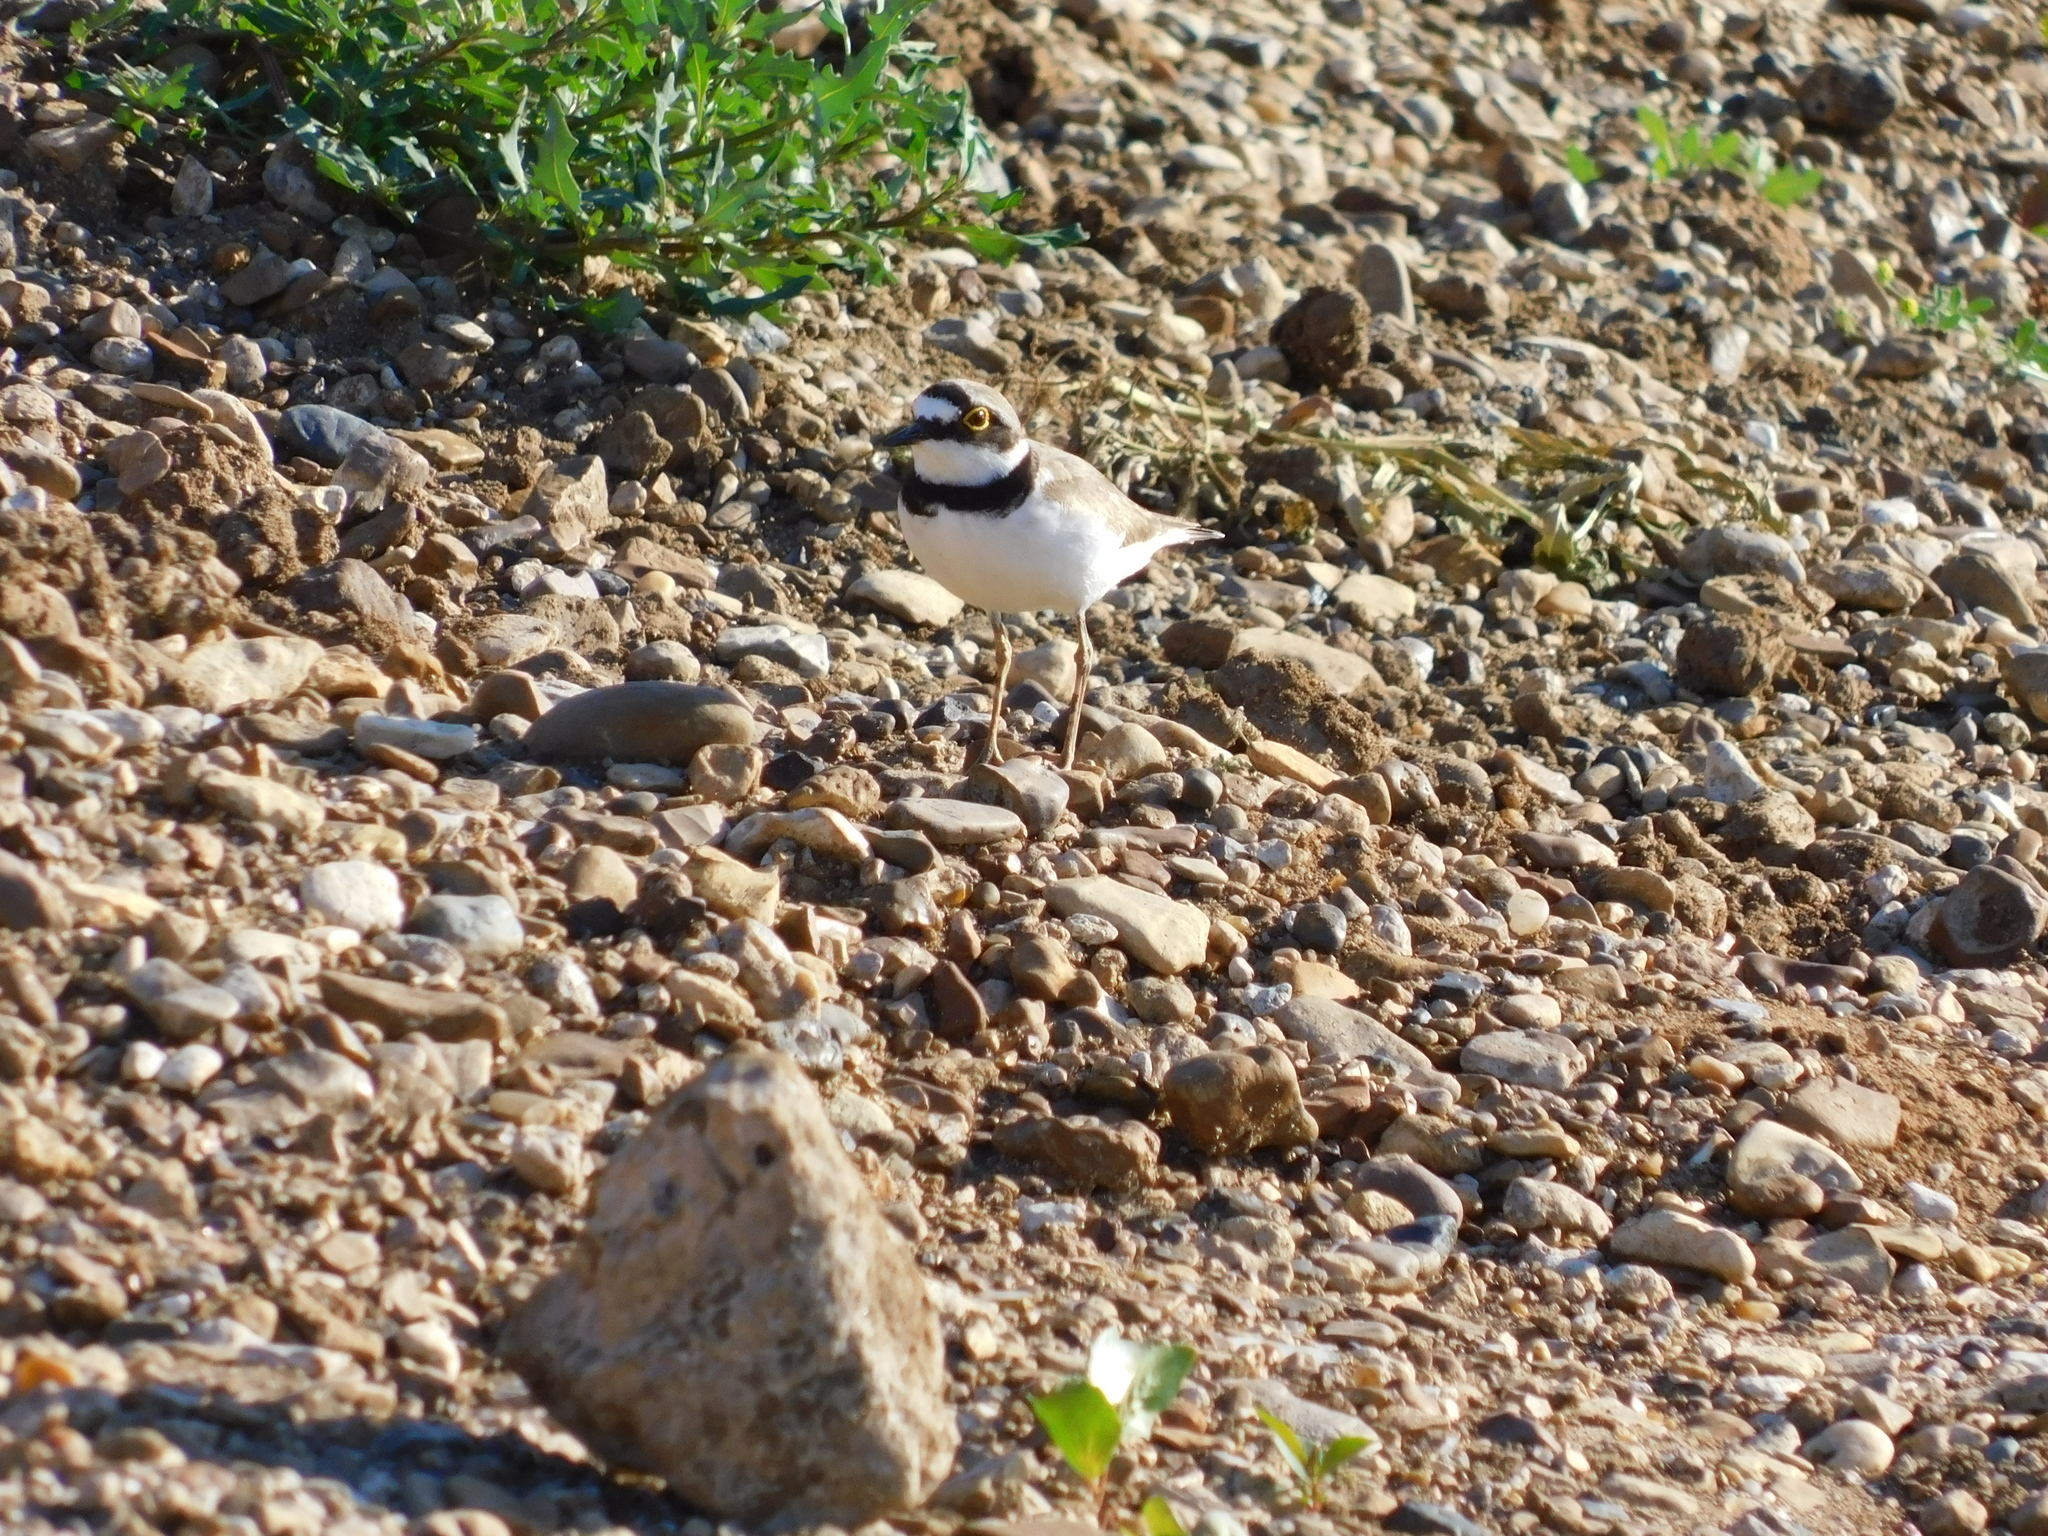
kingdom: Animalia
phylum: Chordata
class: Aves
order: Charadriiformes
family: Charadriidae
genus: Charadrius
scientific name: Charadrius dubius
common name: Little ringed plover
